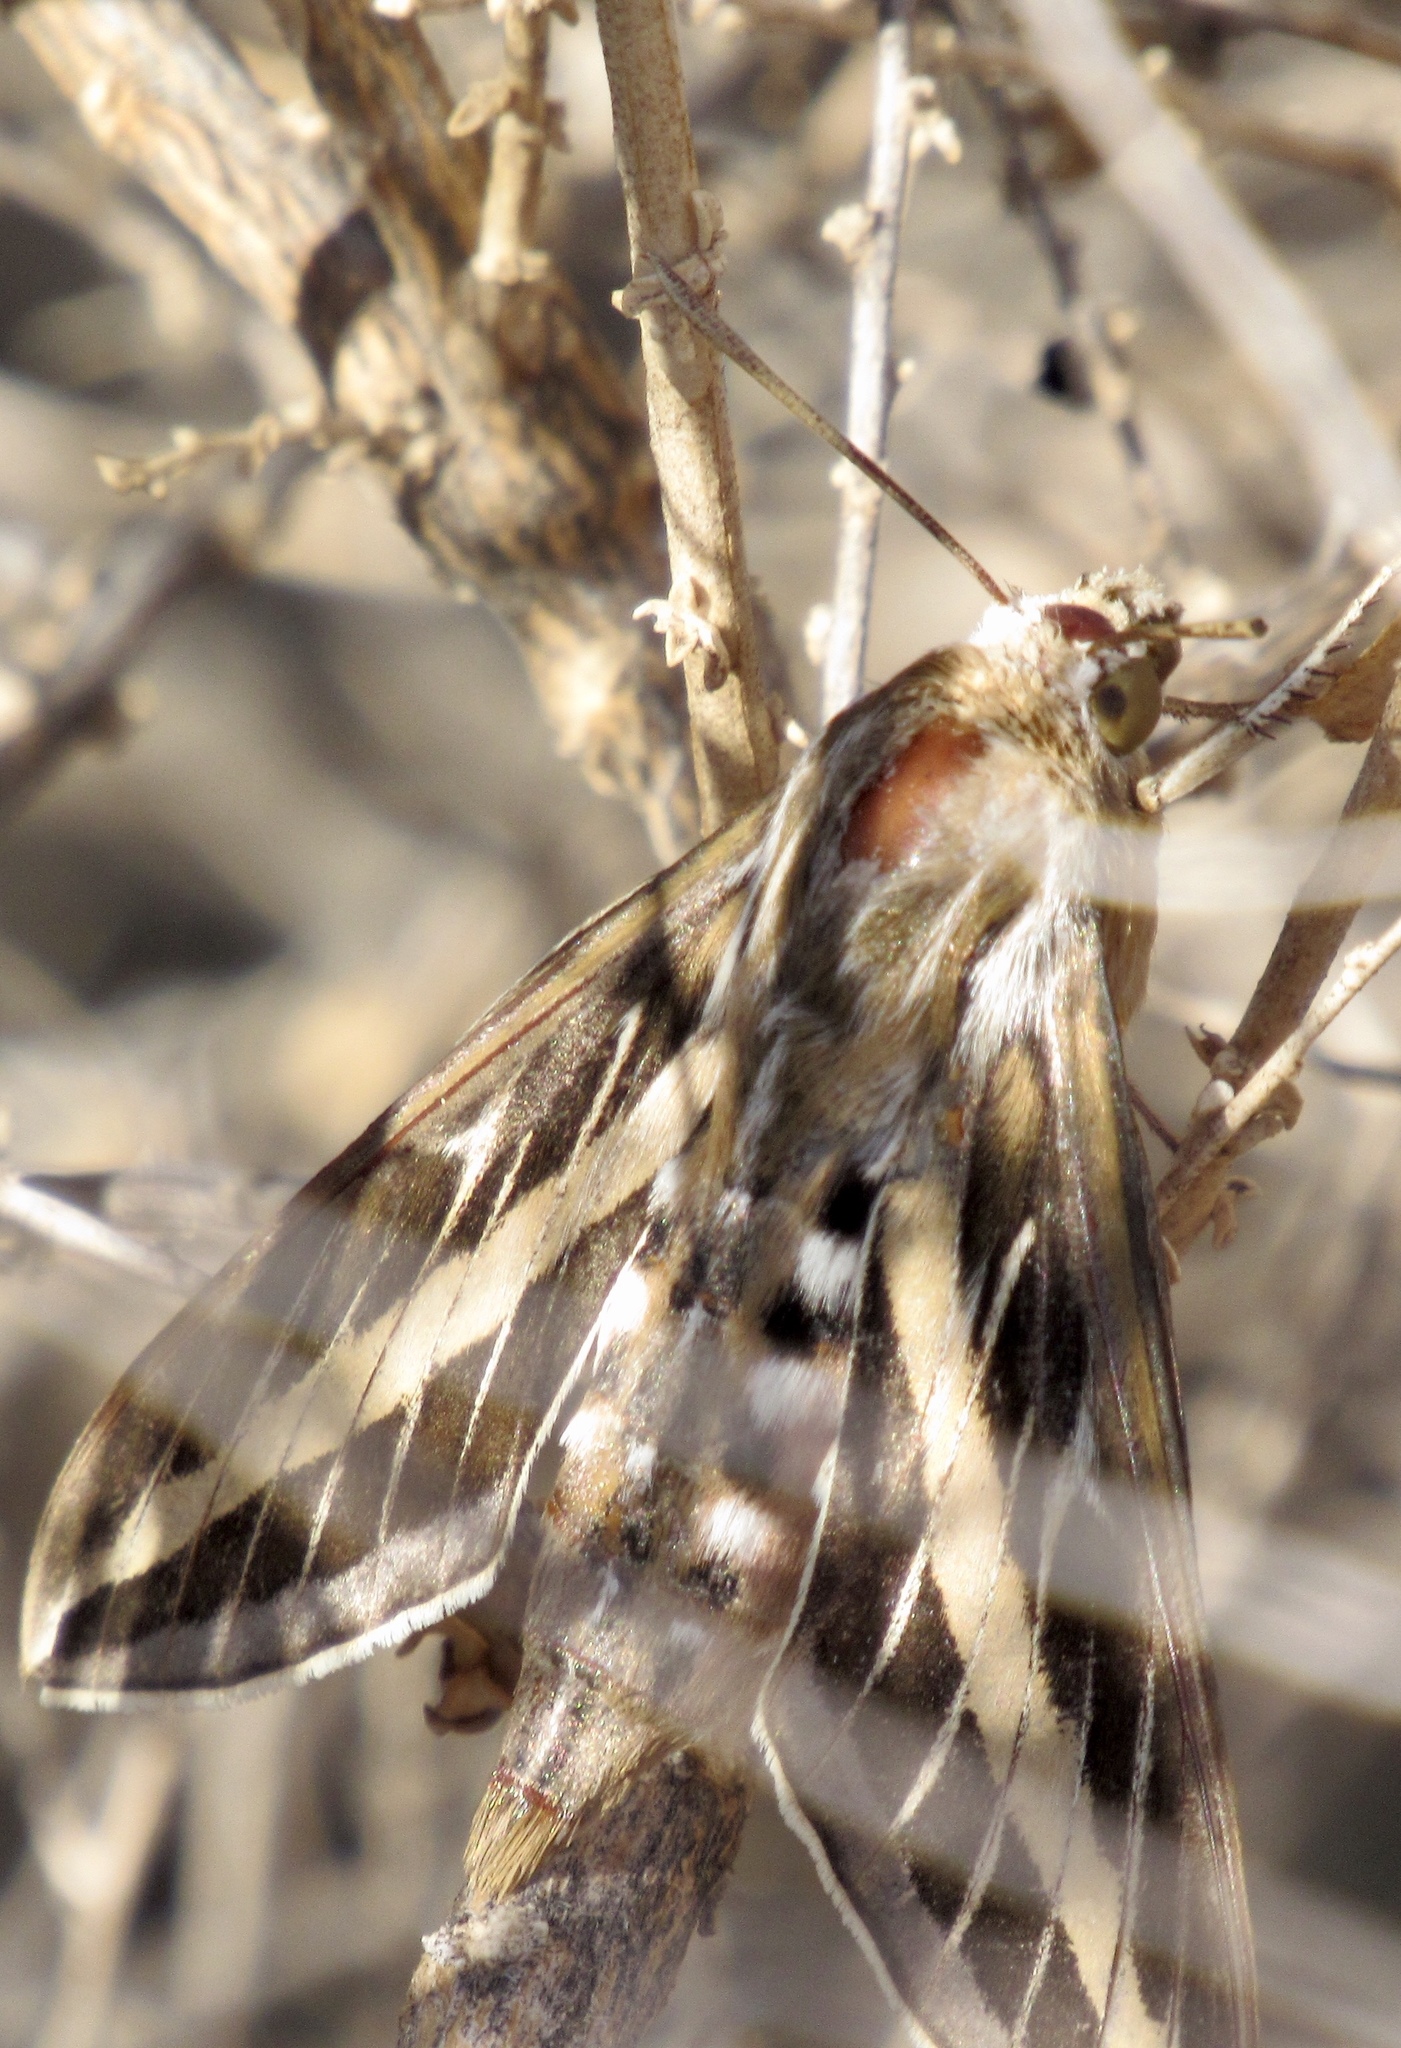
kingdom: Animalia
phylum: Arthropoda
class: Insecta
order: Lepidoptera
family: Sphingidae
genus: Hyles
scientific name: Hyles lineata
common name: White-lined sphinx
